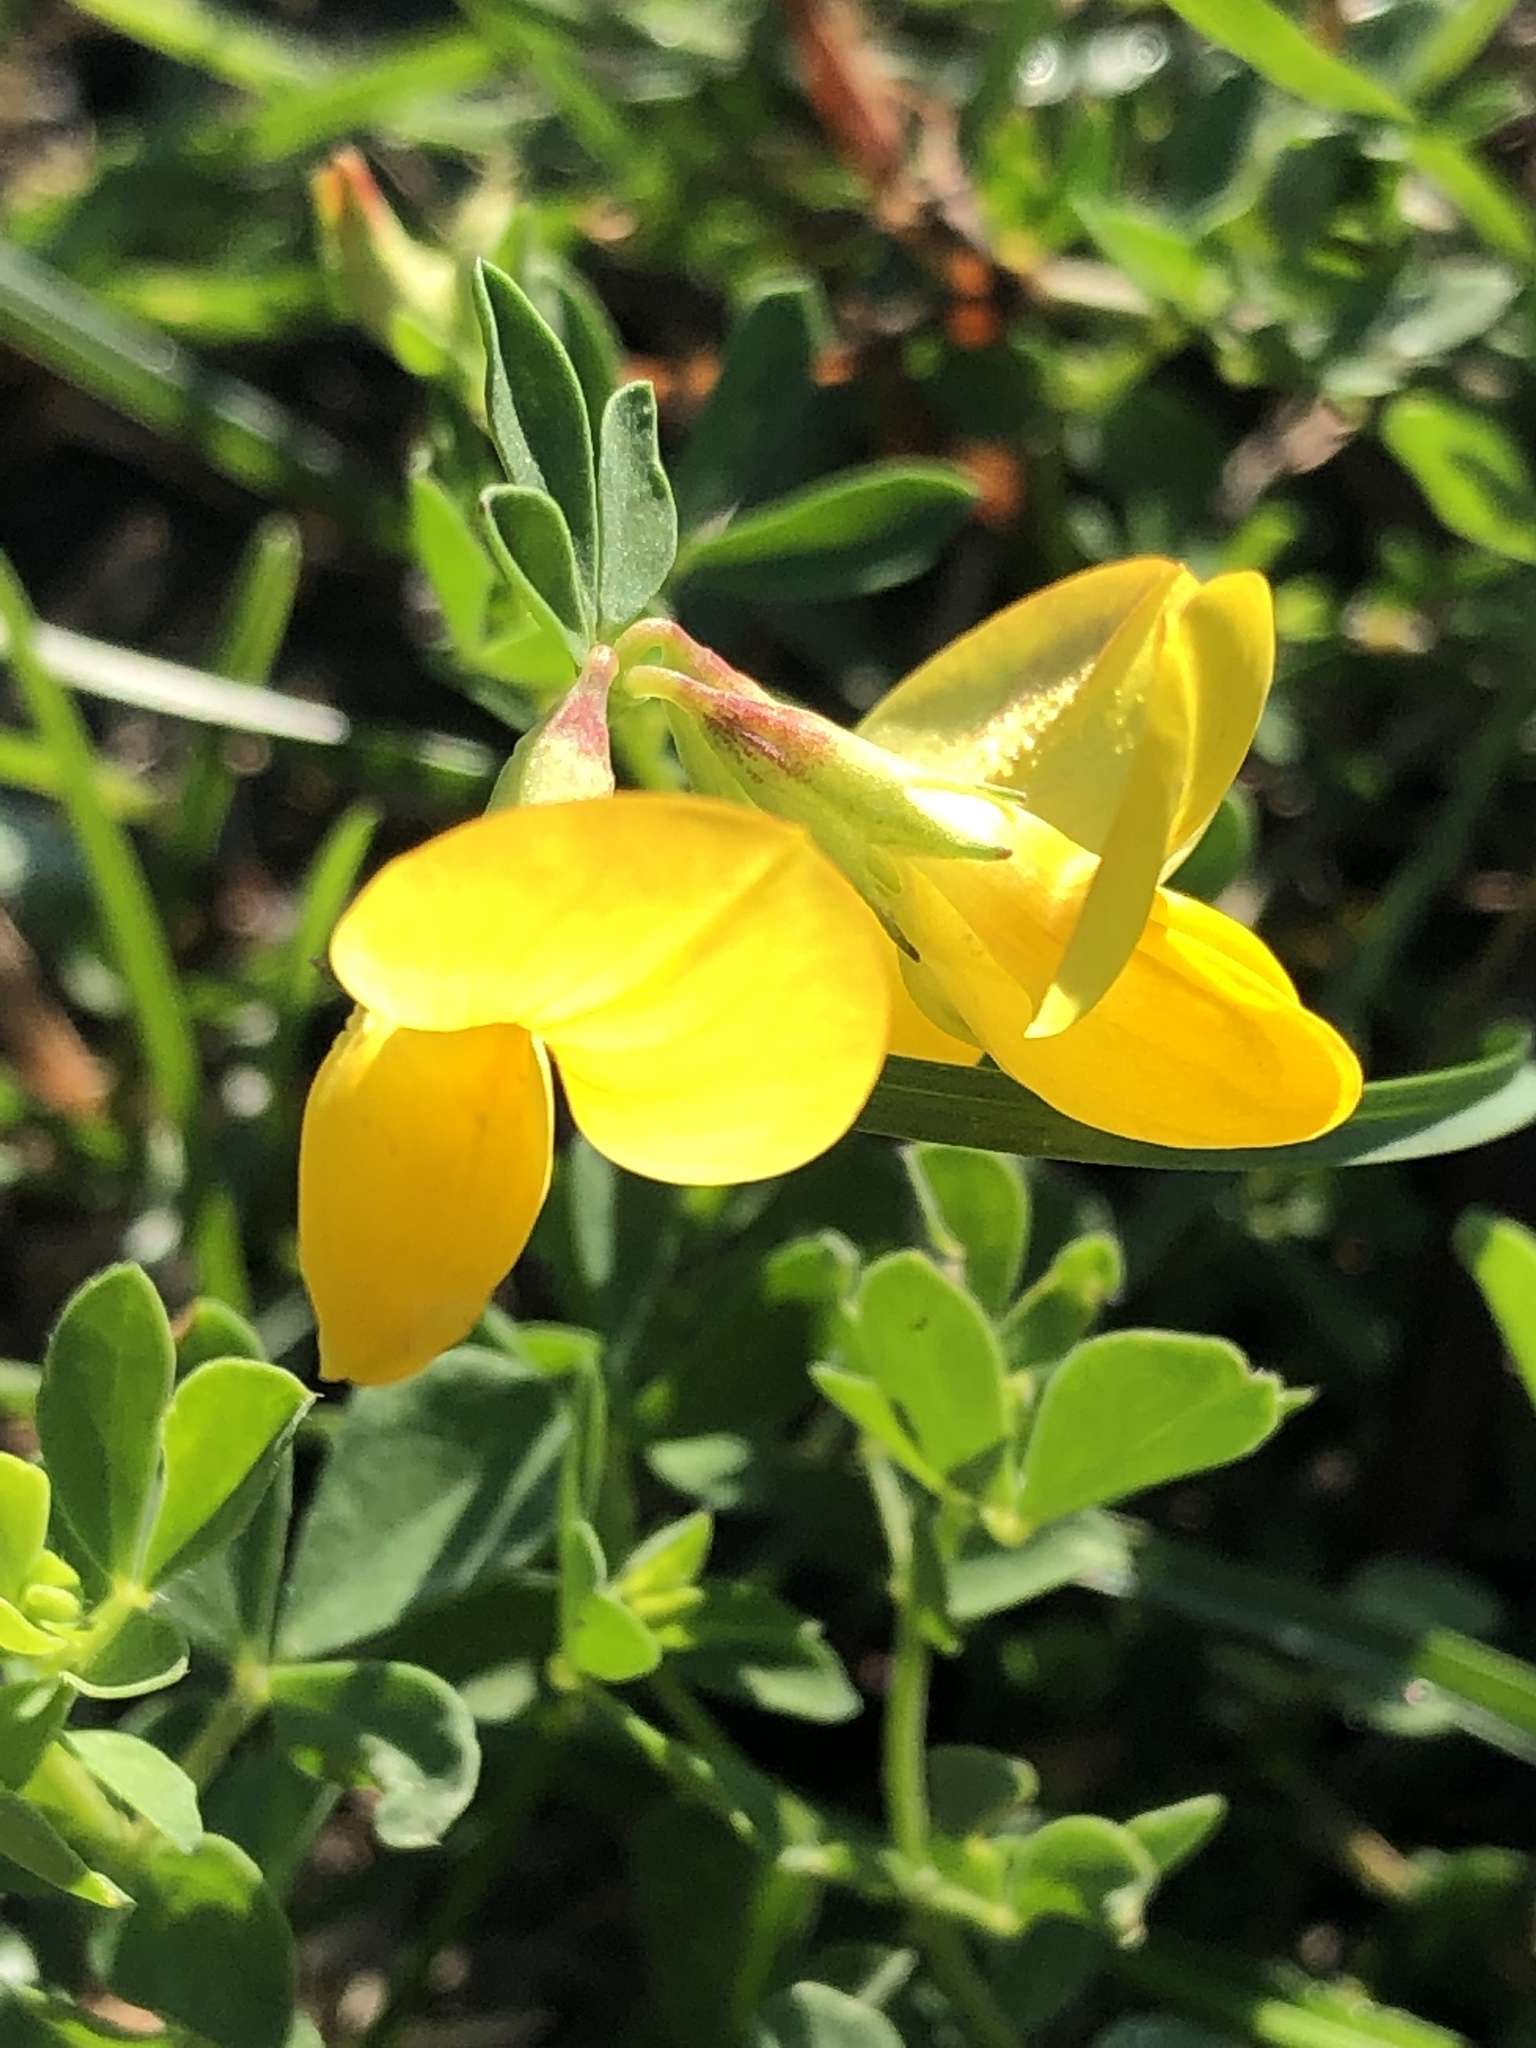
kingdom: Plantae
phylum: Tracheophyta
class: Magnoliopsida
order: Fabales
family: Fabaceae
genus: Lotus
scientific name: Lotus corniculatus
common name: Common bird's-foot-trefoil
